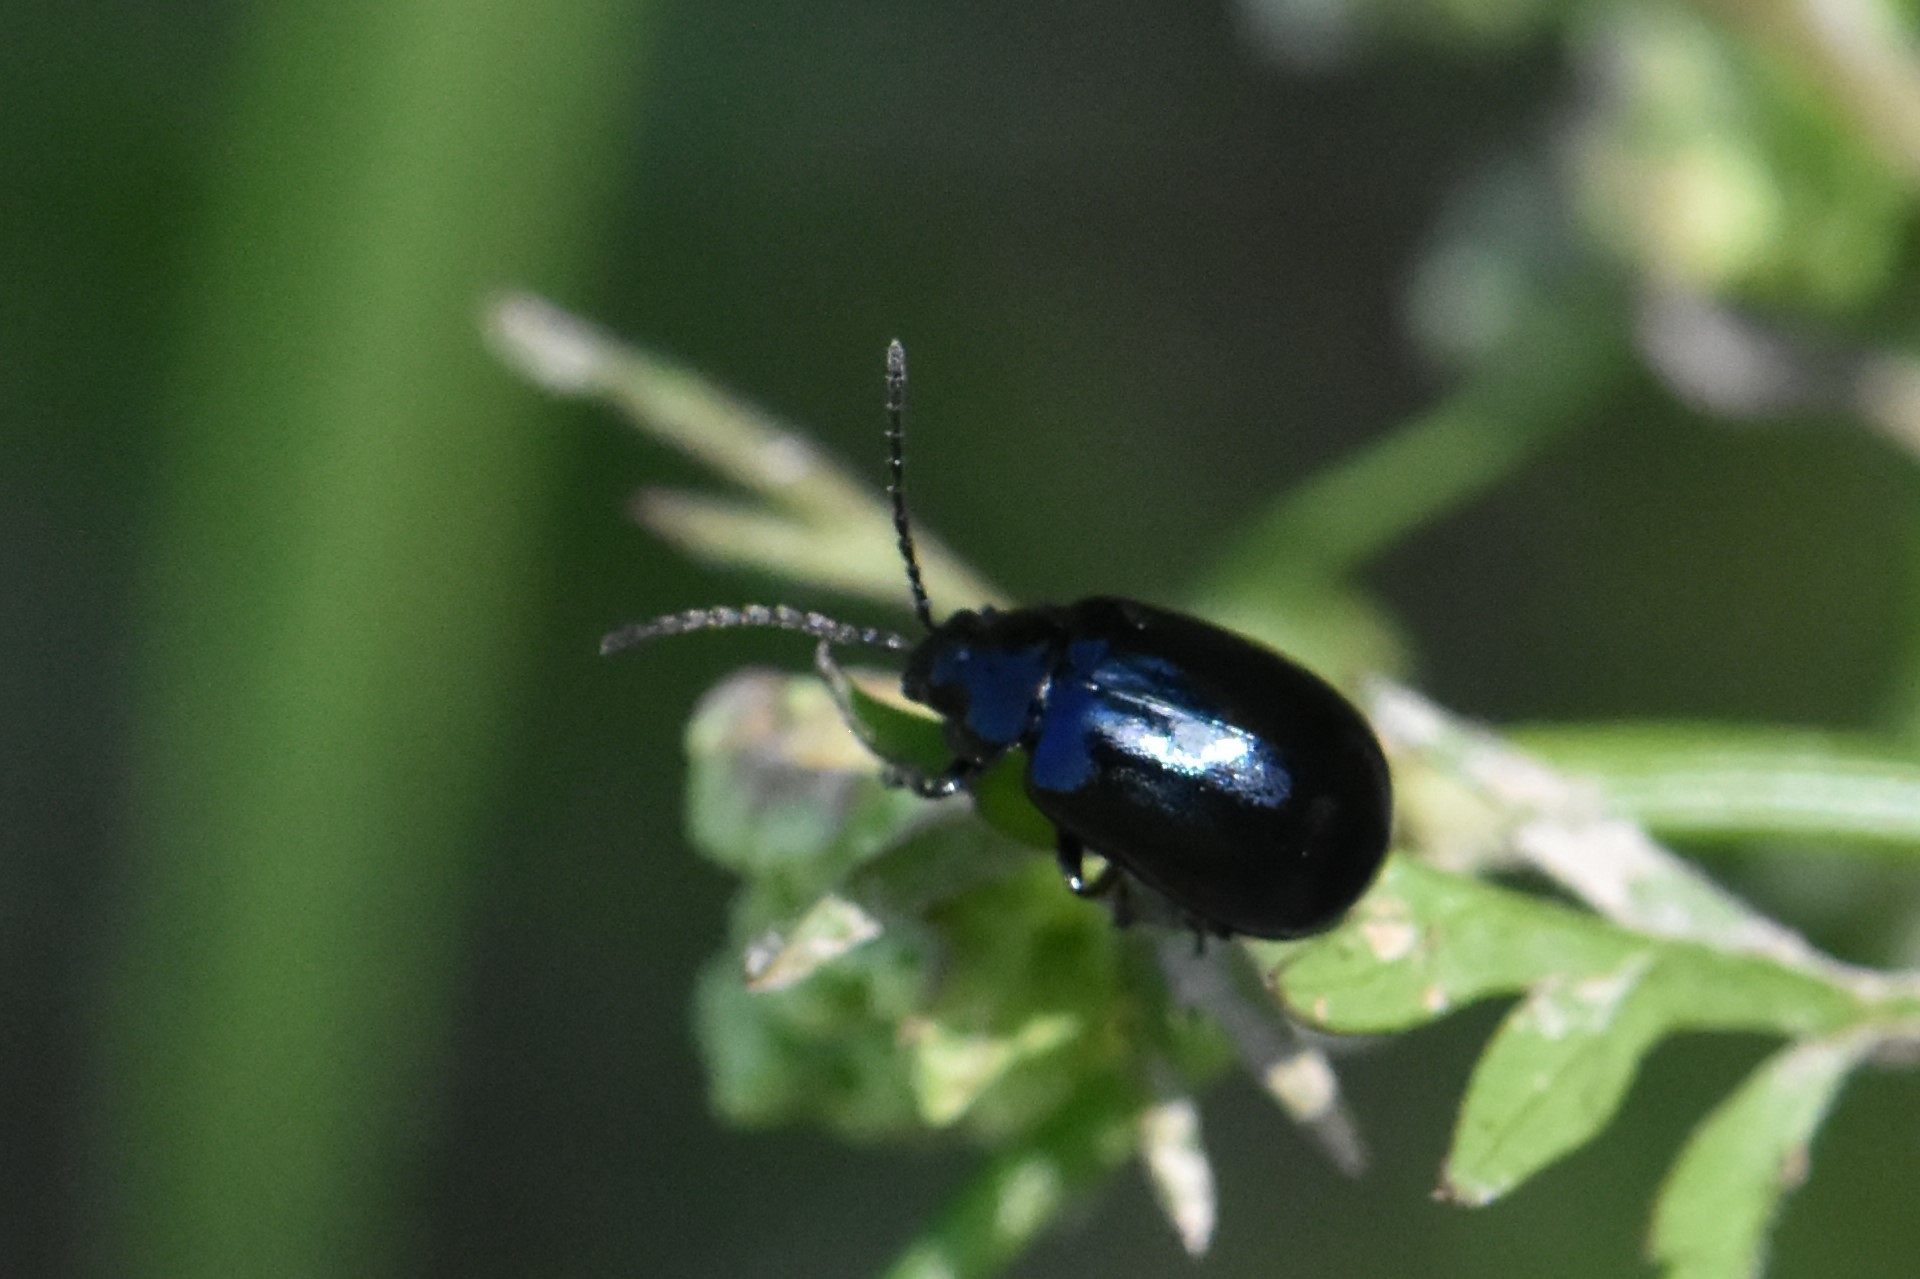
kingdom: Animalia
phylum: Arthropoda
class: Insecta
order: Coleoptera
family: Chrysomelidae
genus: Agelastica
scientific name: Agelastica alni
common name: Alder leaf beetle
